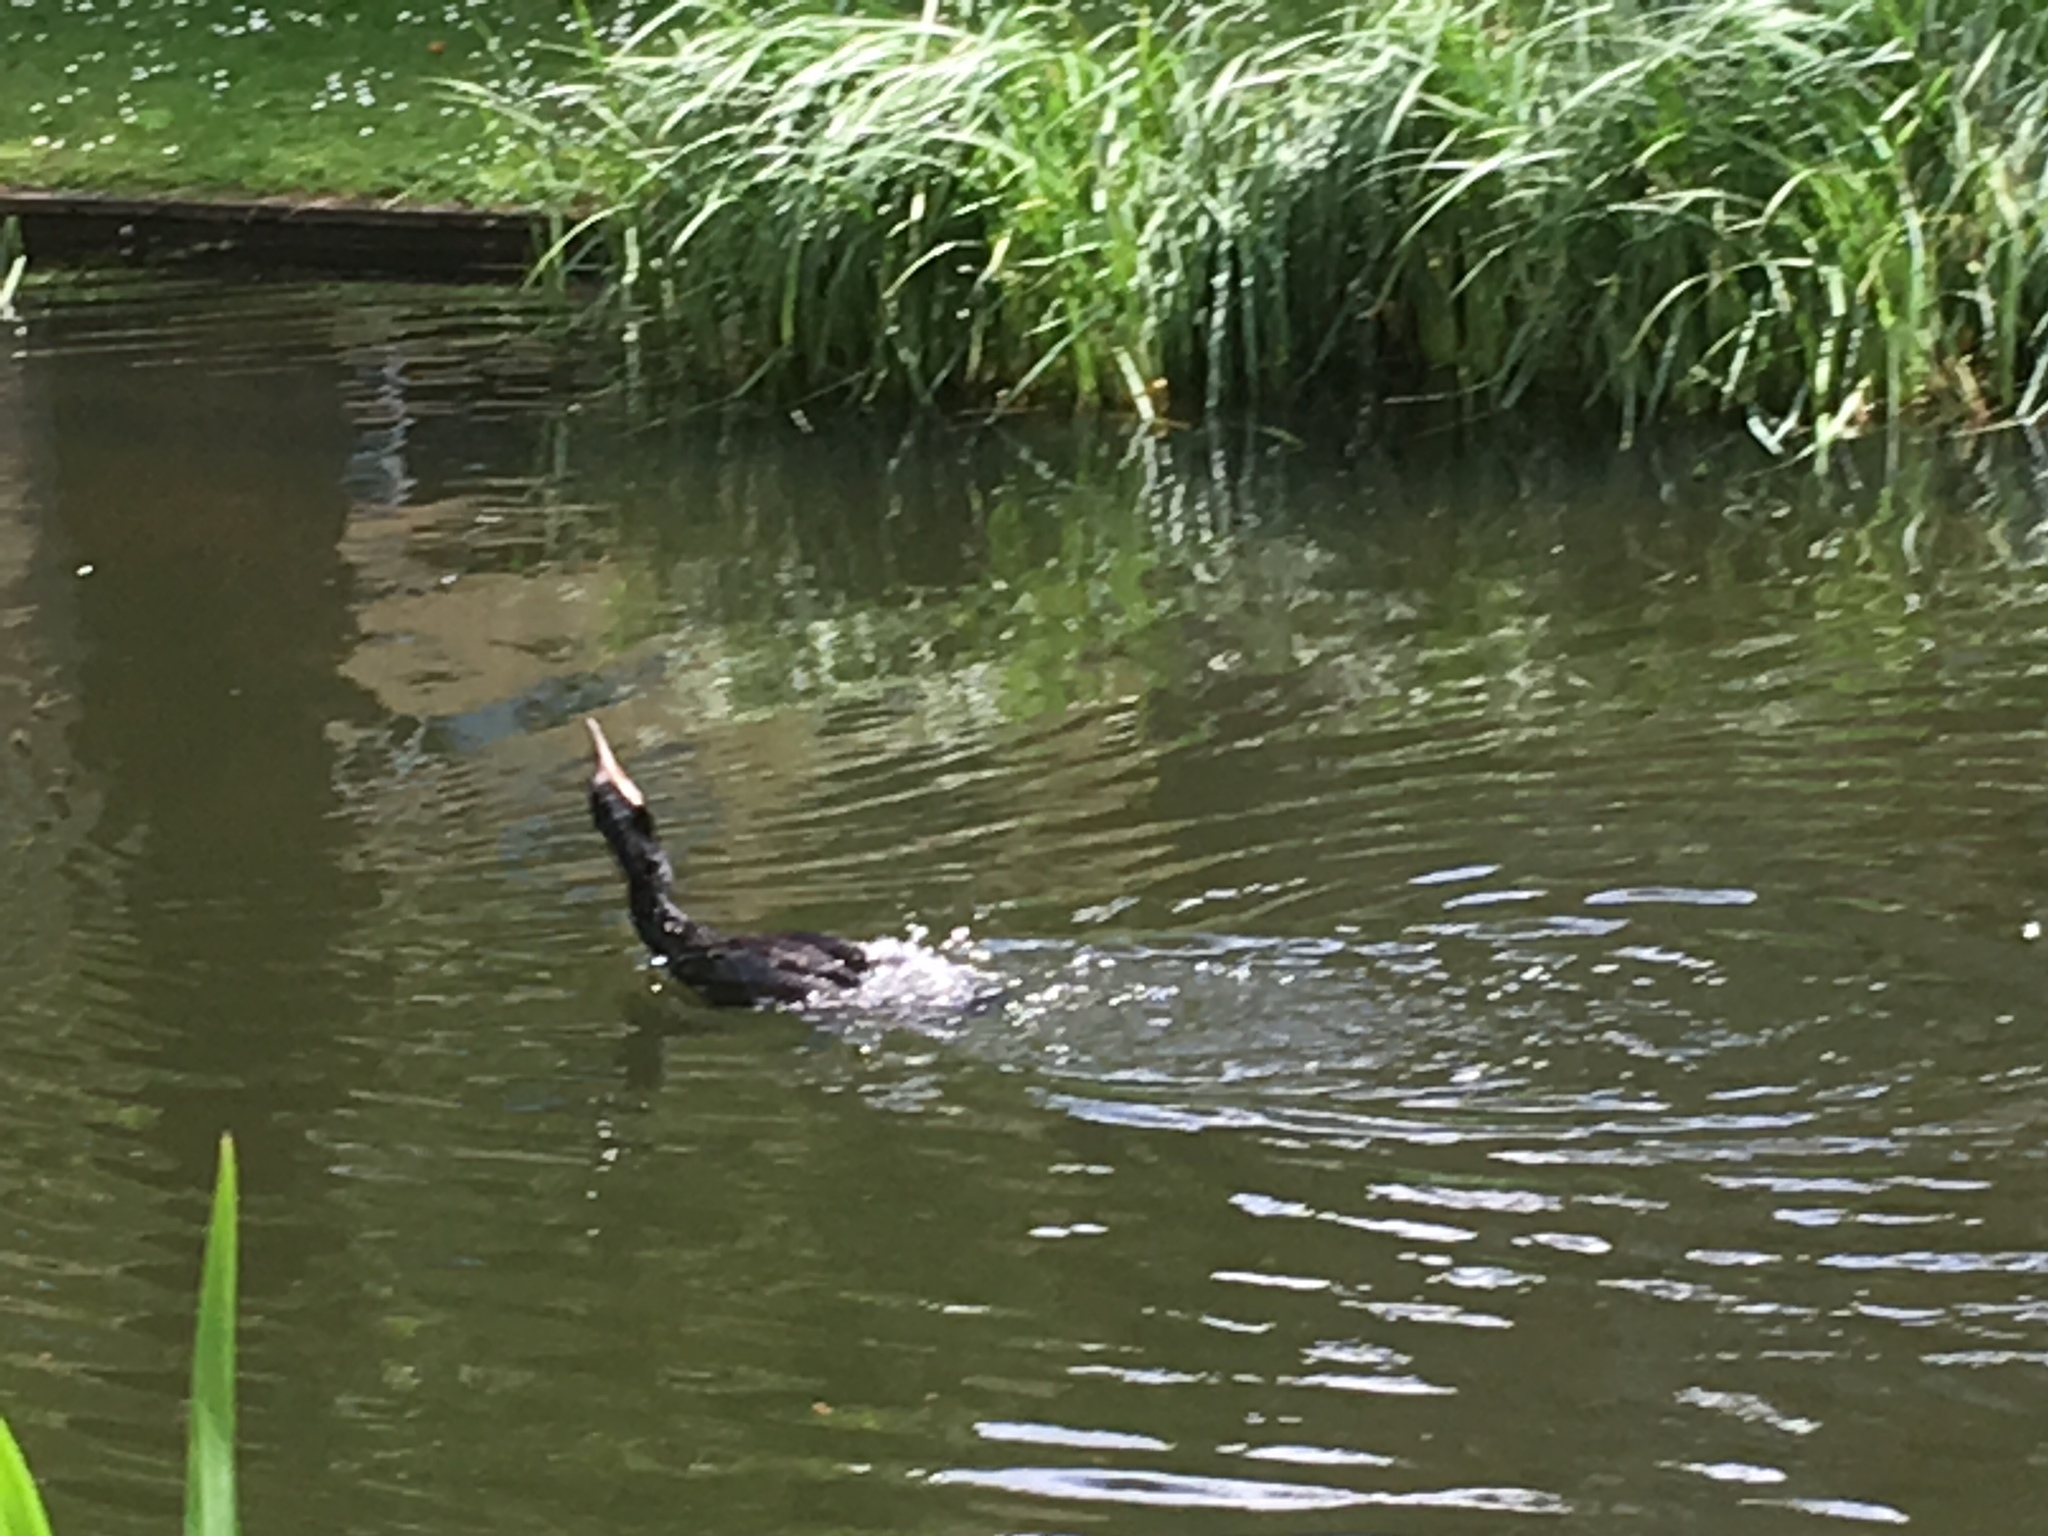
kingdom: Animalia
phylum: Chordata
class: Aves
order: Suliformes
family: Phalacrocoracidae
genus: Phalacrocorax
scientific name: Phalacrocorax carbo
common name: Great cormorant
